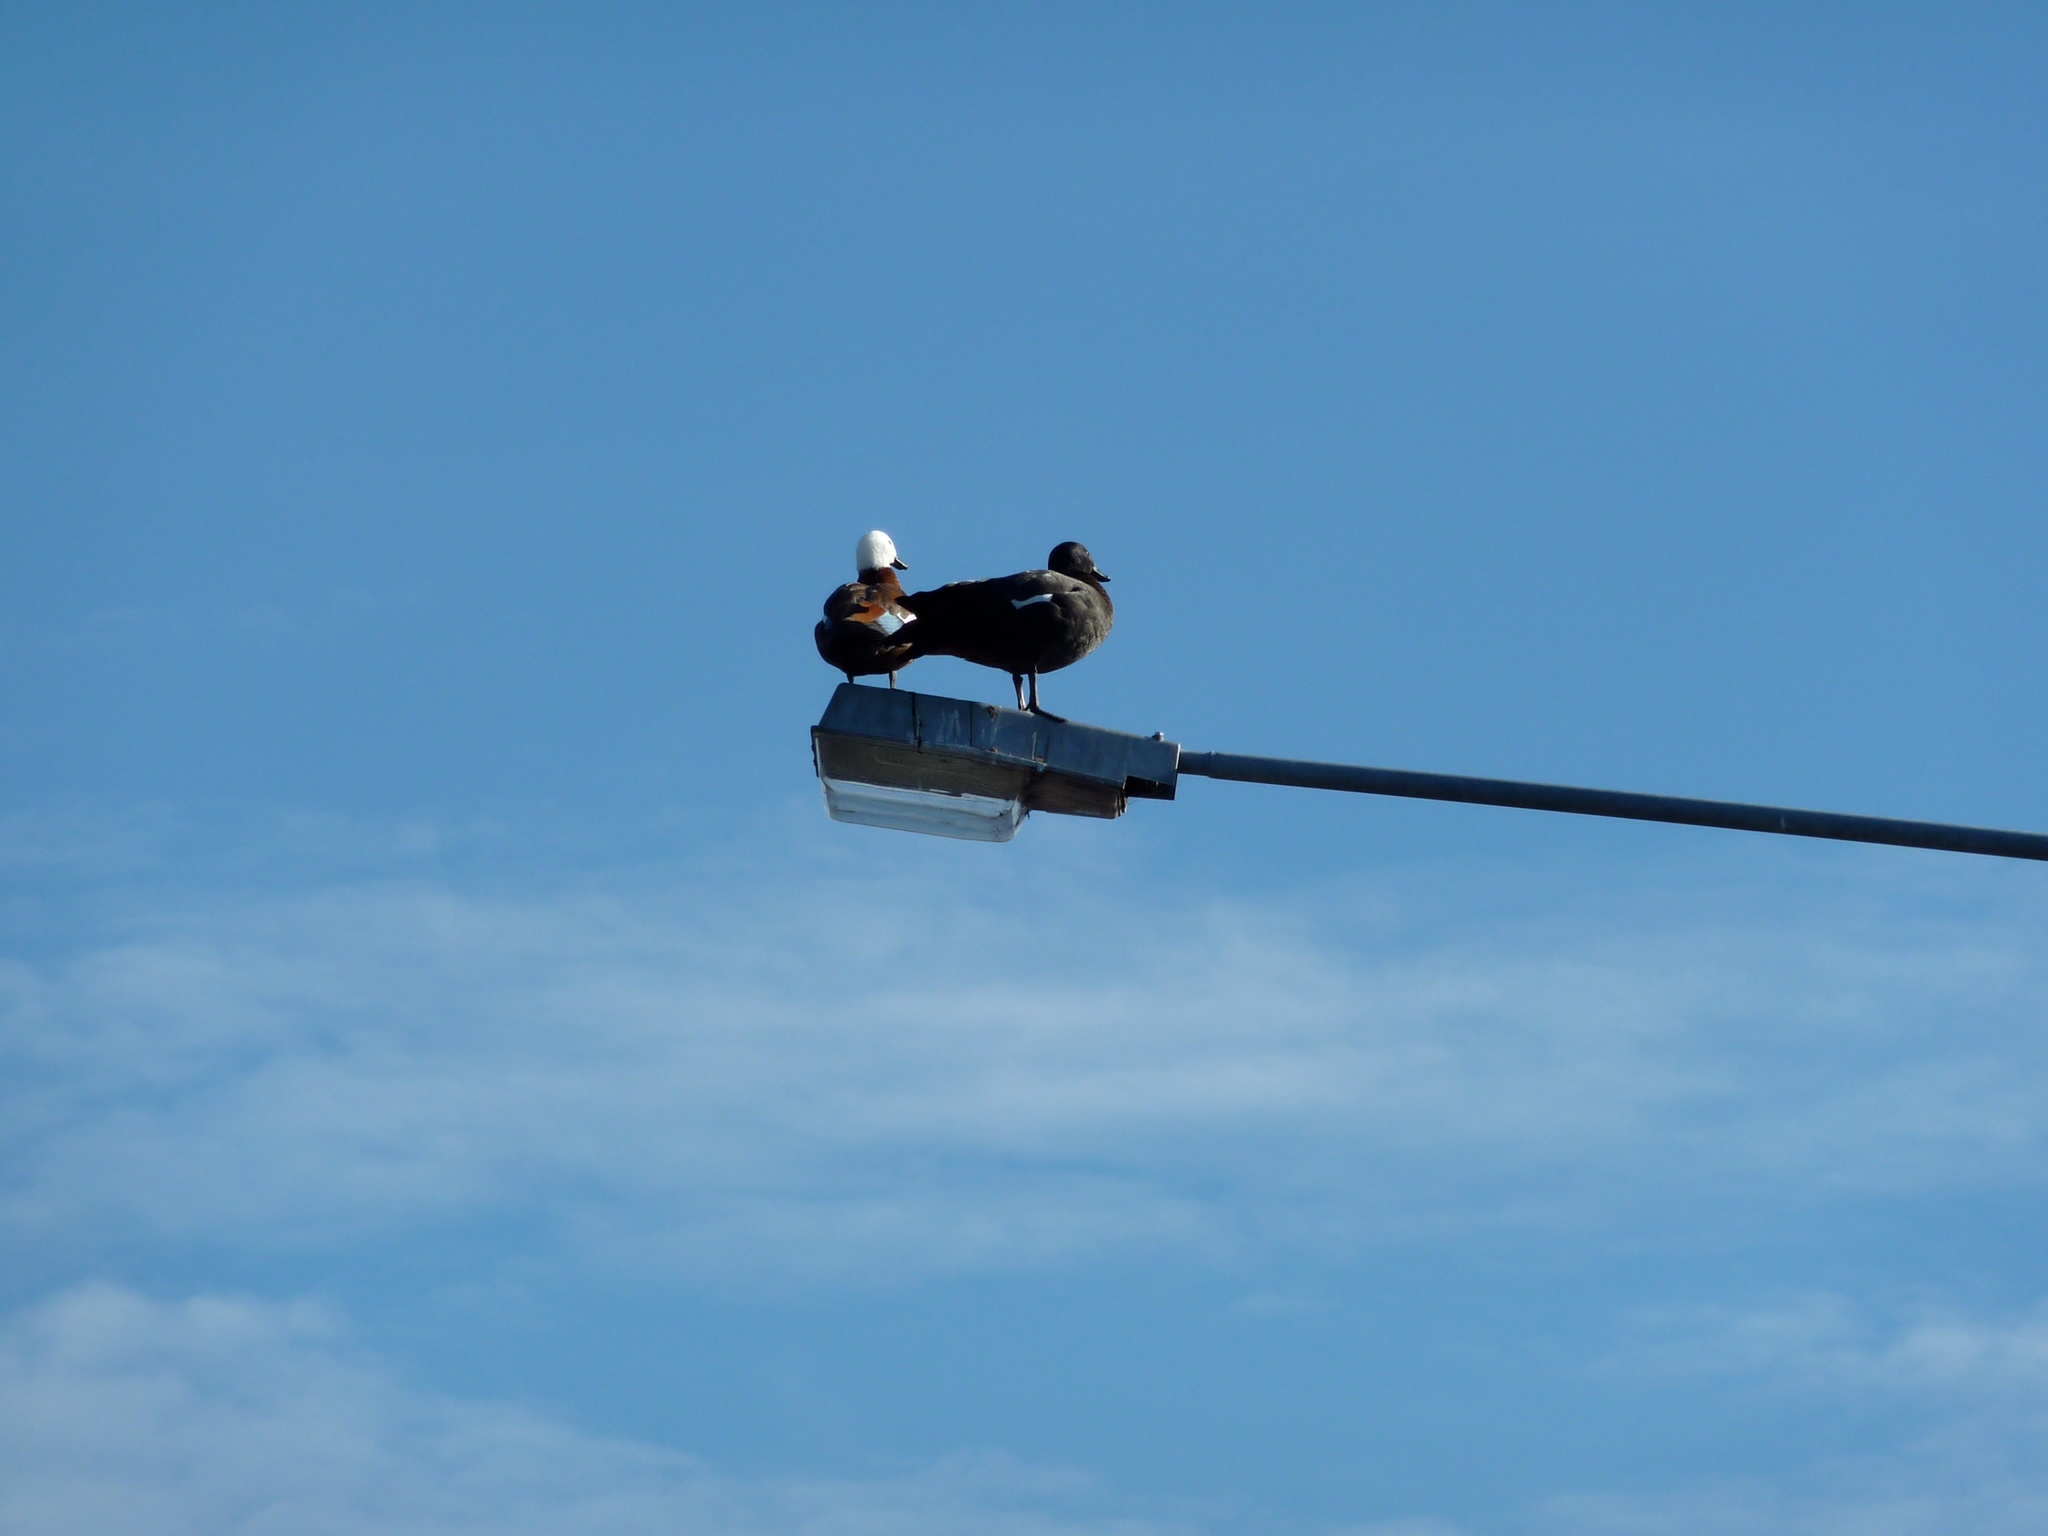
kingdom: Animalia
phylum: Chordata
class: Aves
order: Anseriformes
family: Anatidae
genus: Tadorna
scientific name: Tadorna variegata
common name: Paradise shelduck
